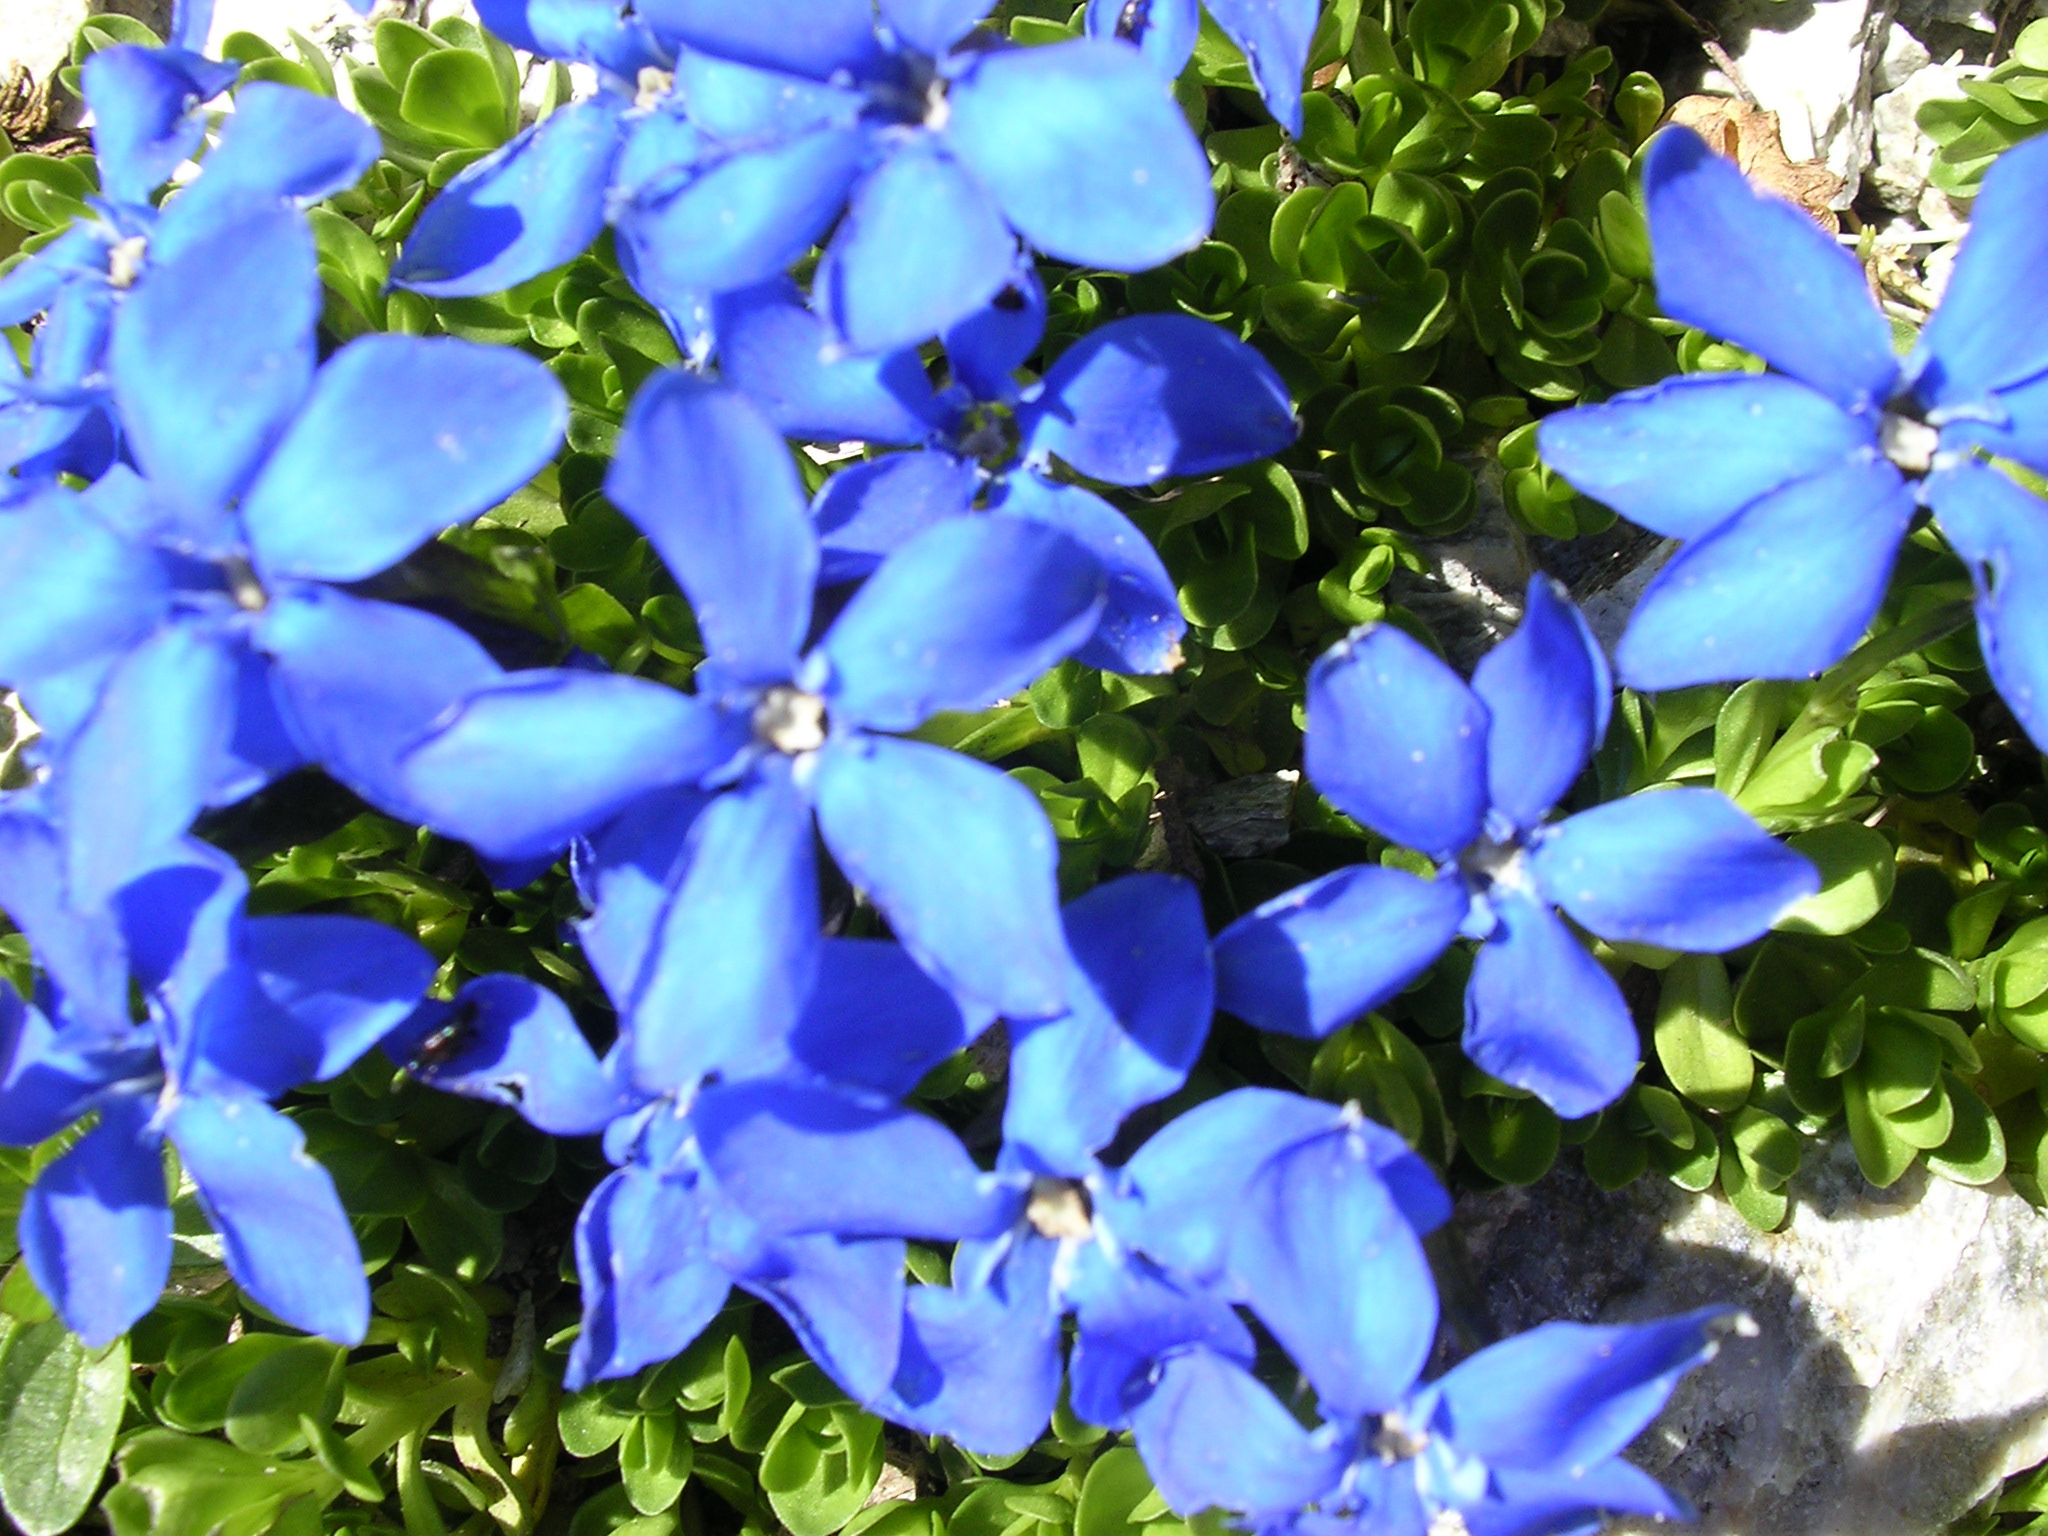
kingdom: Plantae
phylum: Tracheophyta
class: Magnoliopsida
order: Gentianales
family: Gentianaceae
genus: Gentiana
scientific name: Gentiana bavarica
